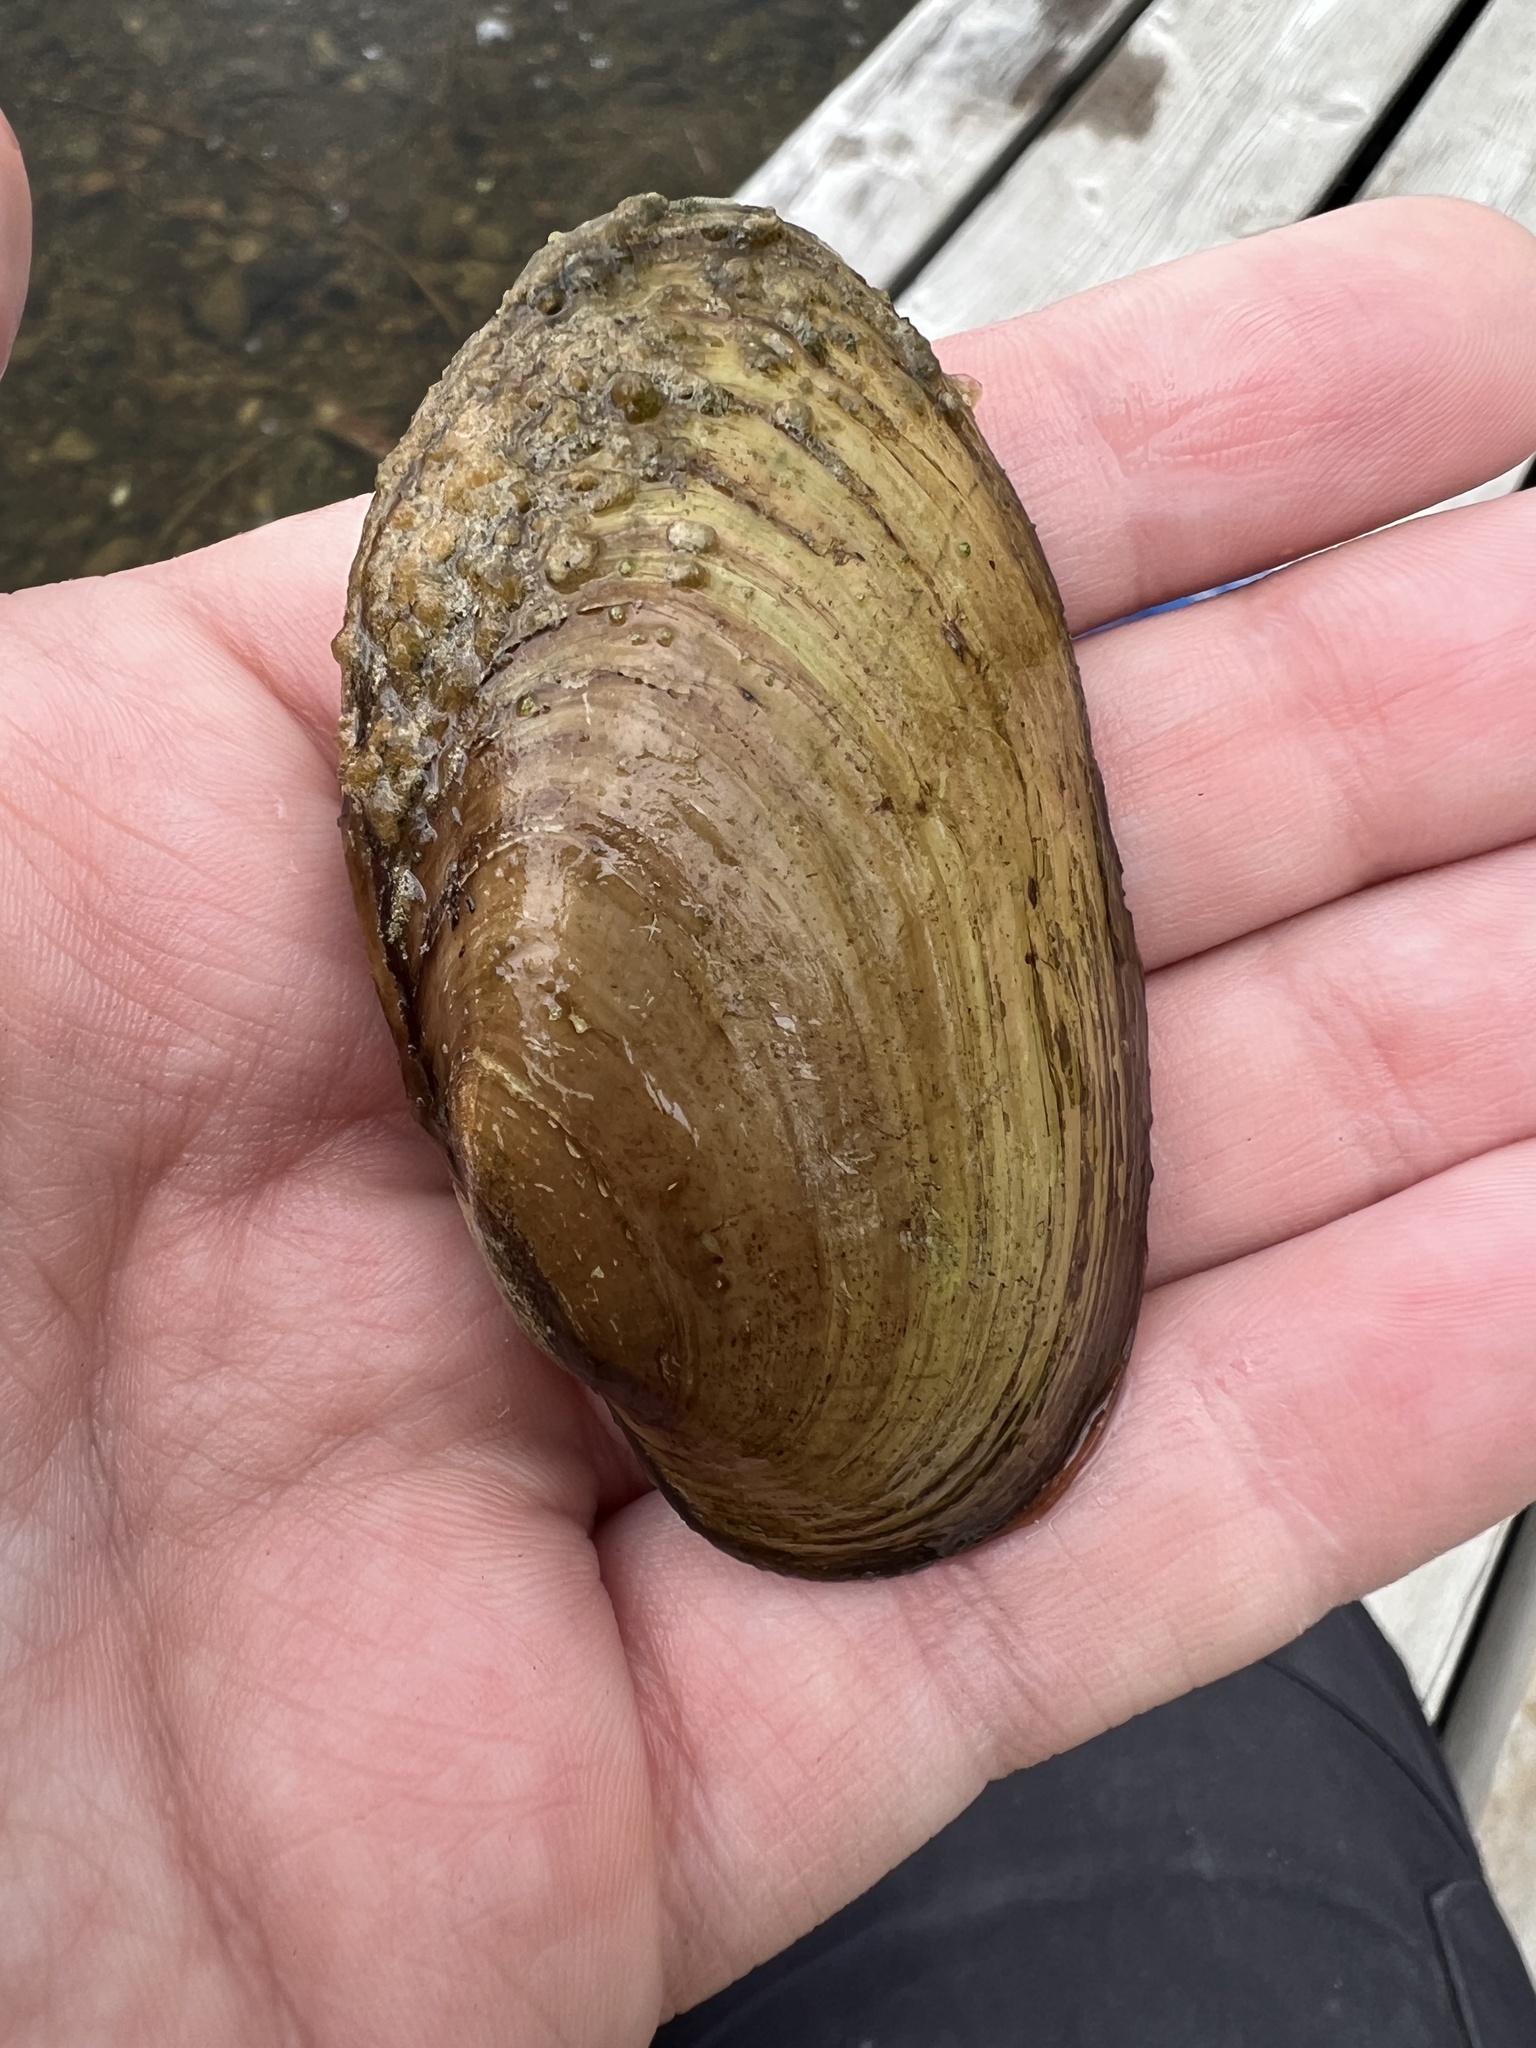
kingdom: Animalia
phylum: Mollusca
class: Bivalvia
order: Unionida
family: Unionidae
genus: Lampsilis
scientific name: Lampsilis siliquoidea
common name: Fatmucket
